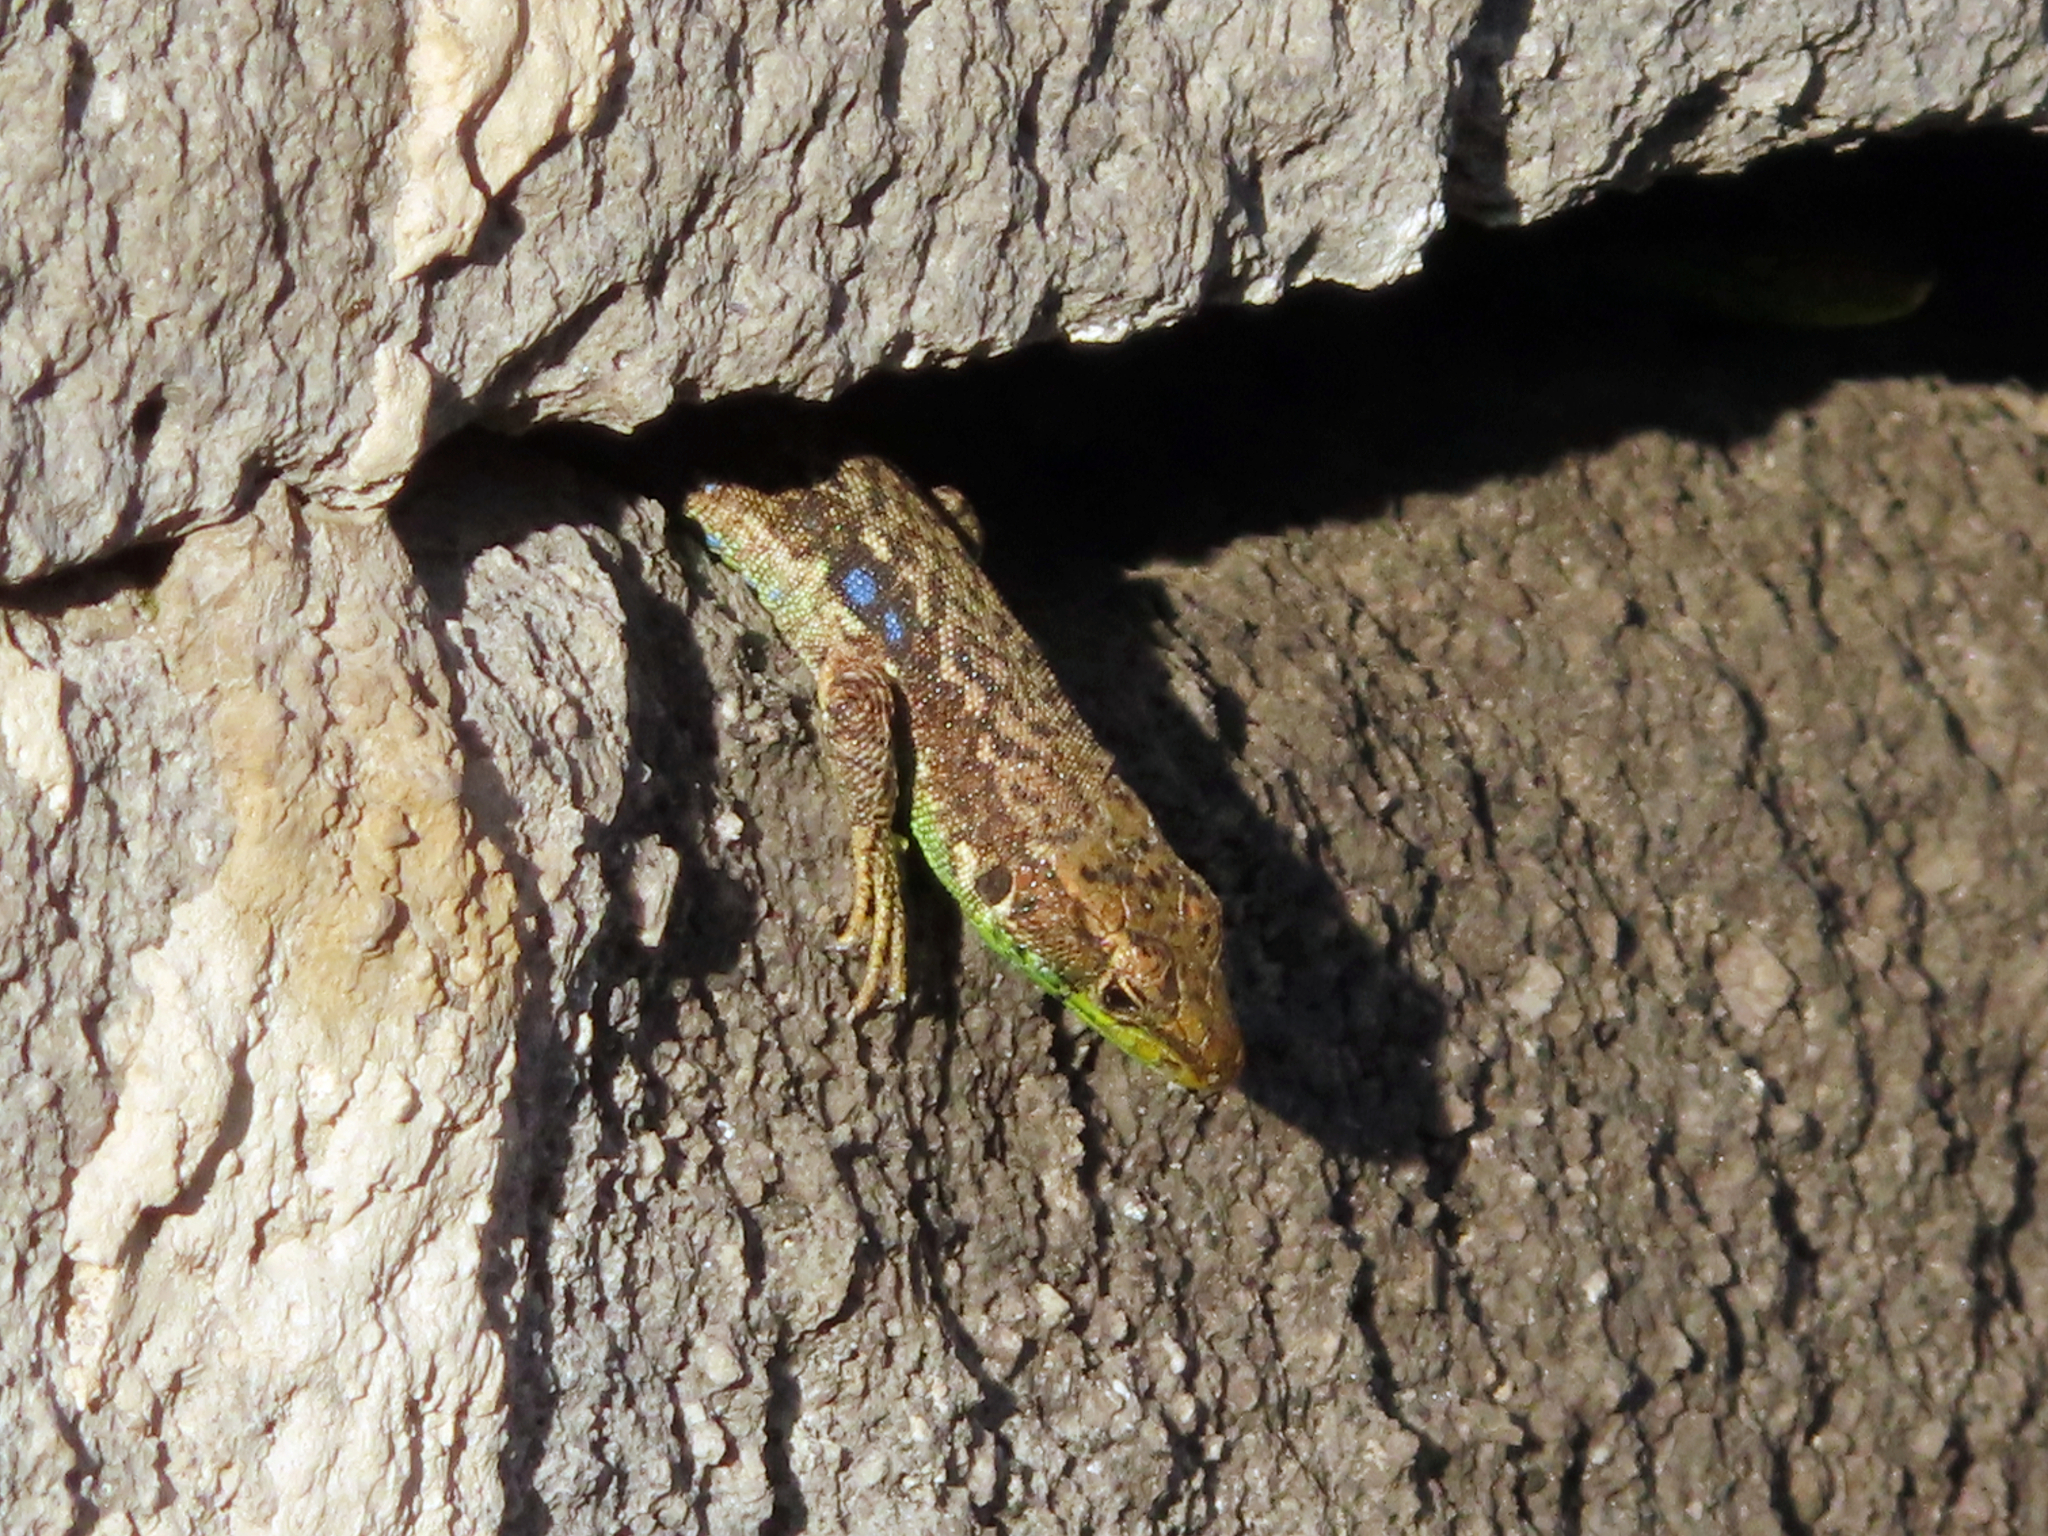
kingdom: Animalia
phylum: Chordata
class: Squamata
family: Lacertidae
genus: Darevskia
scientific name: Darevskia raddei
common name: Radde's lizard
